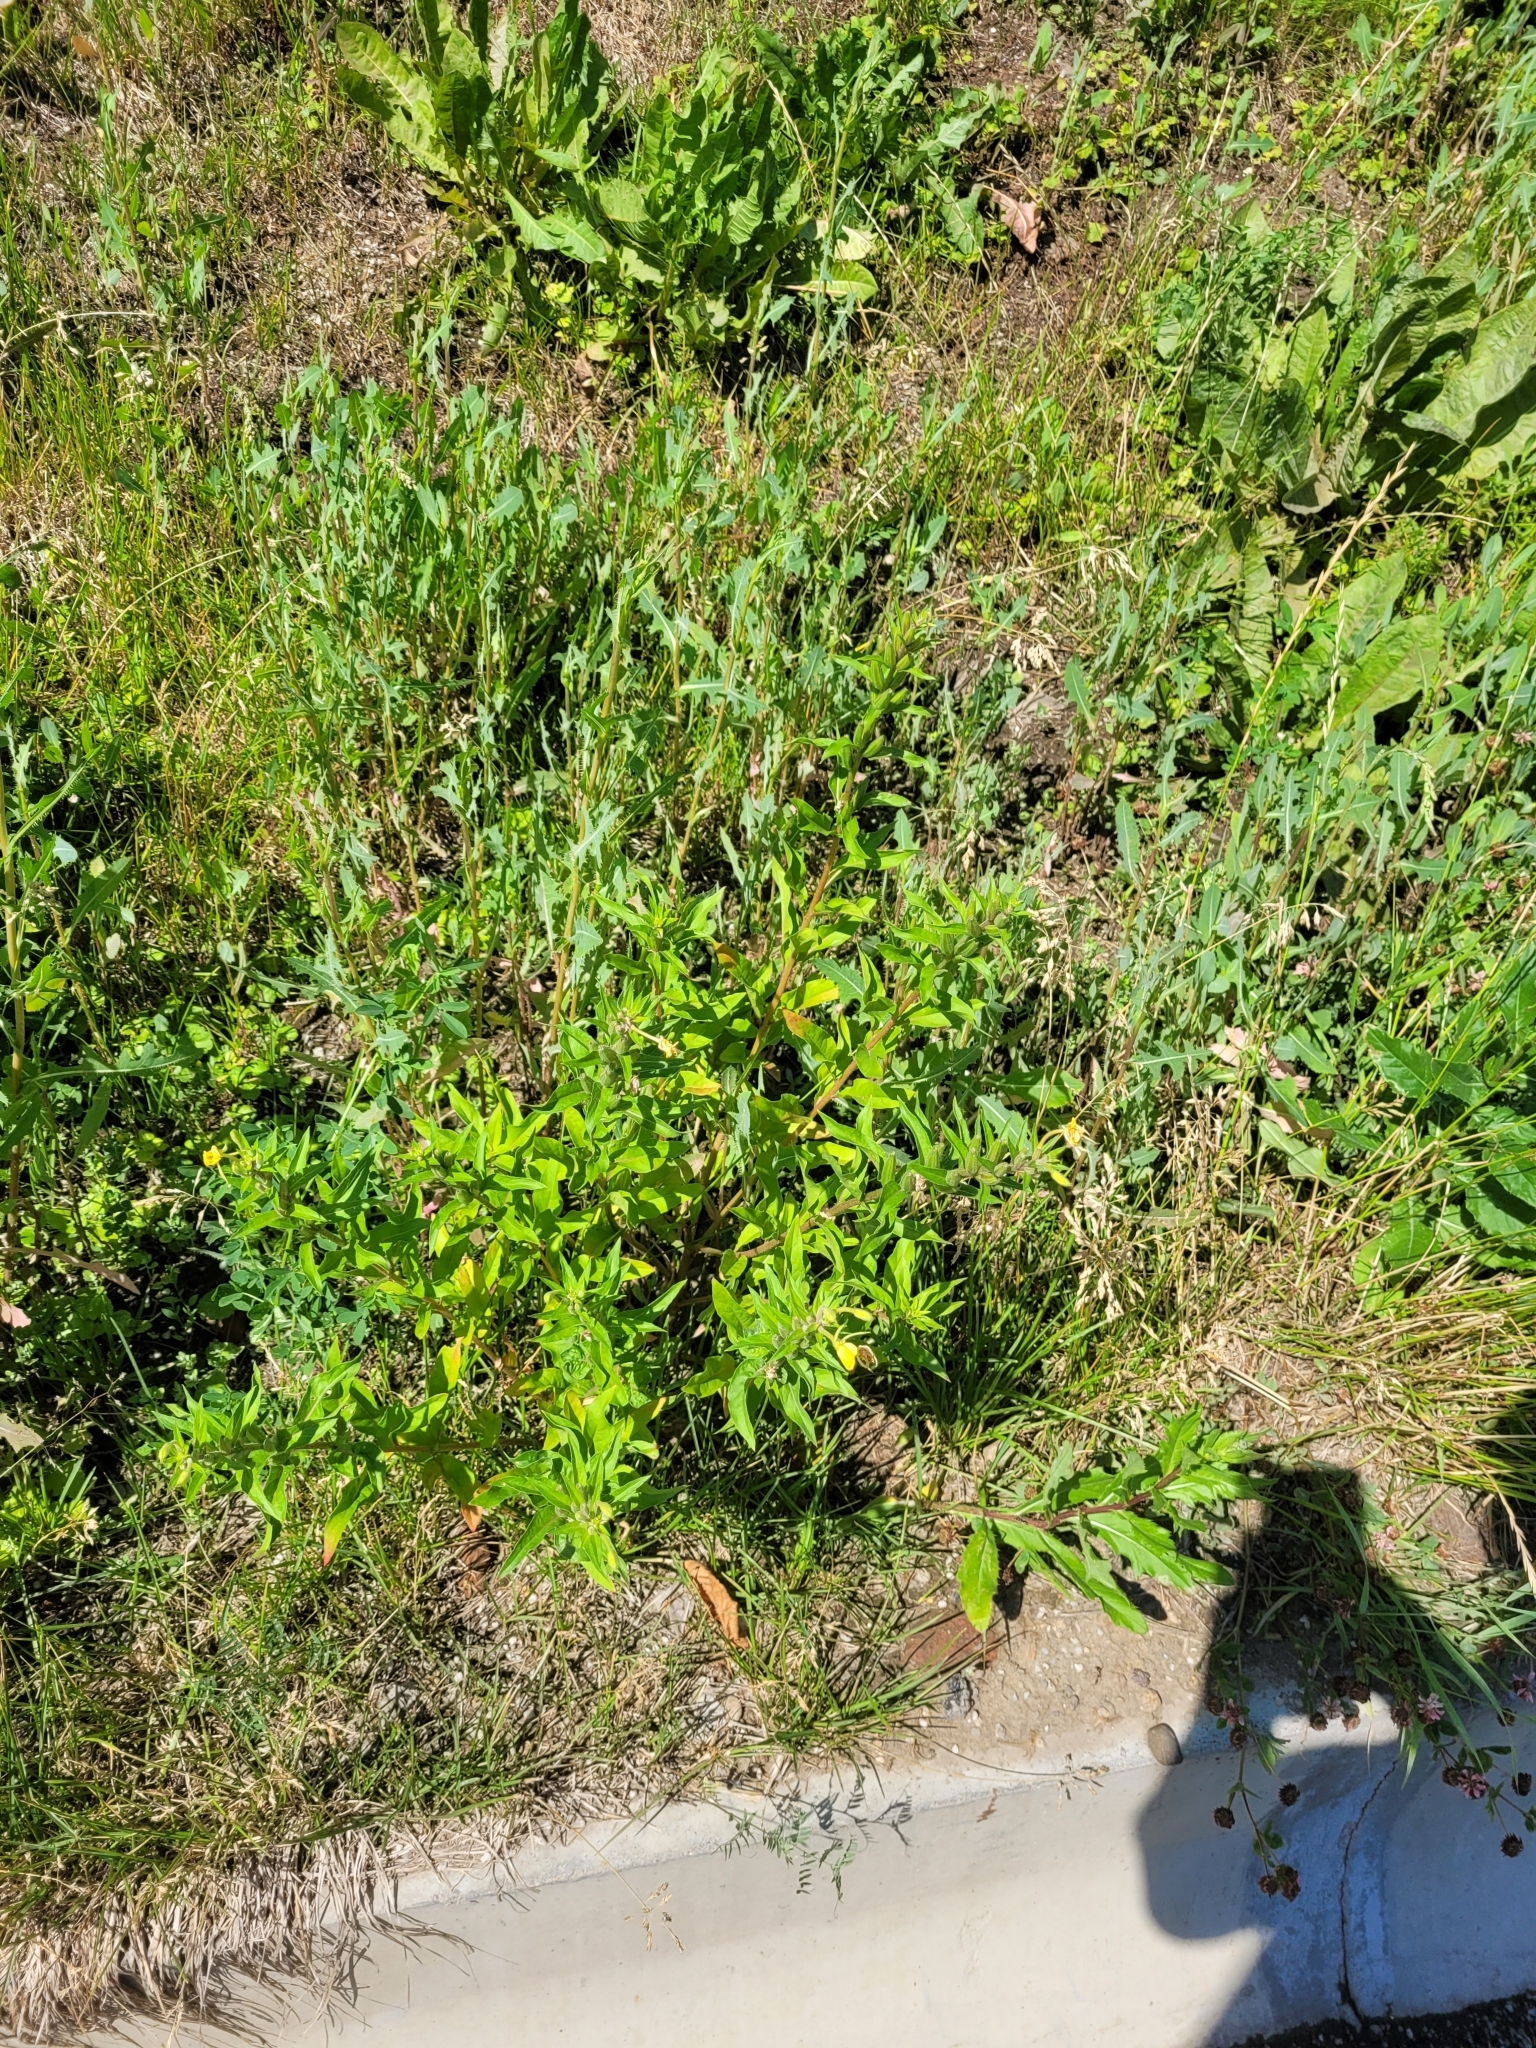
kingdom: Plantae
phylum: Tracheophyta
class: Magnoliopsida
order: Myrtales
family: Onagraceae
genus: Oenothera
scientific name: Oenothera rubricaulis
